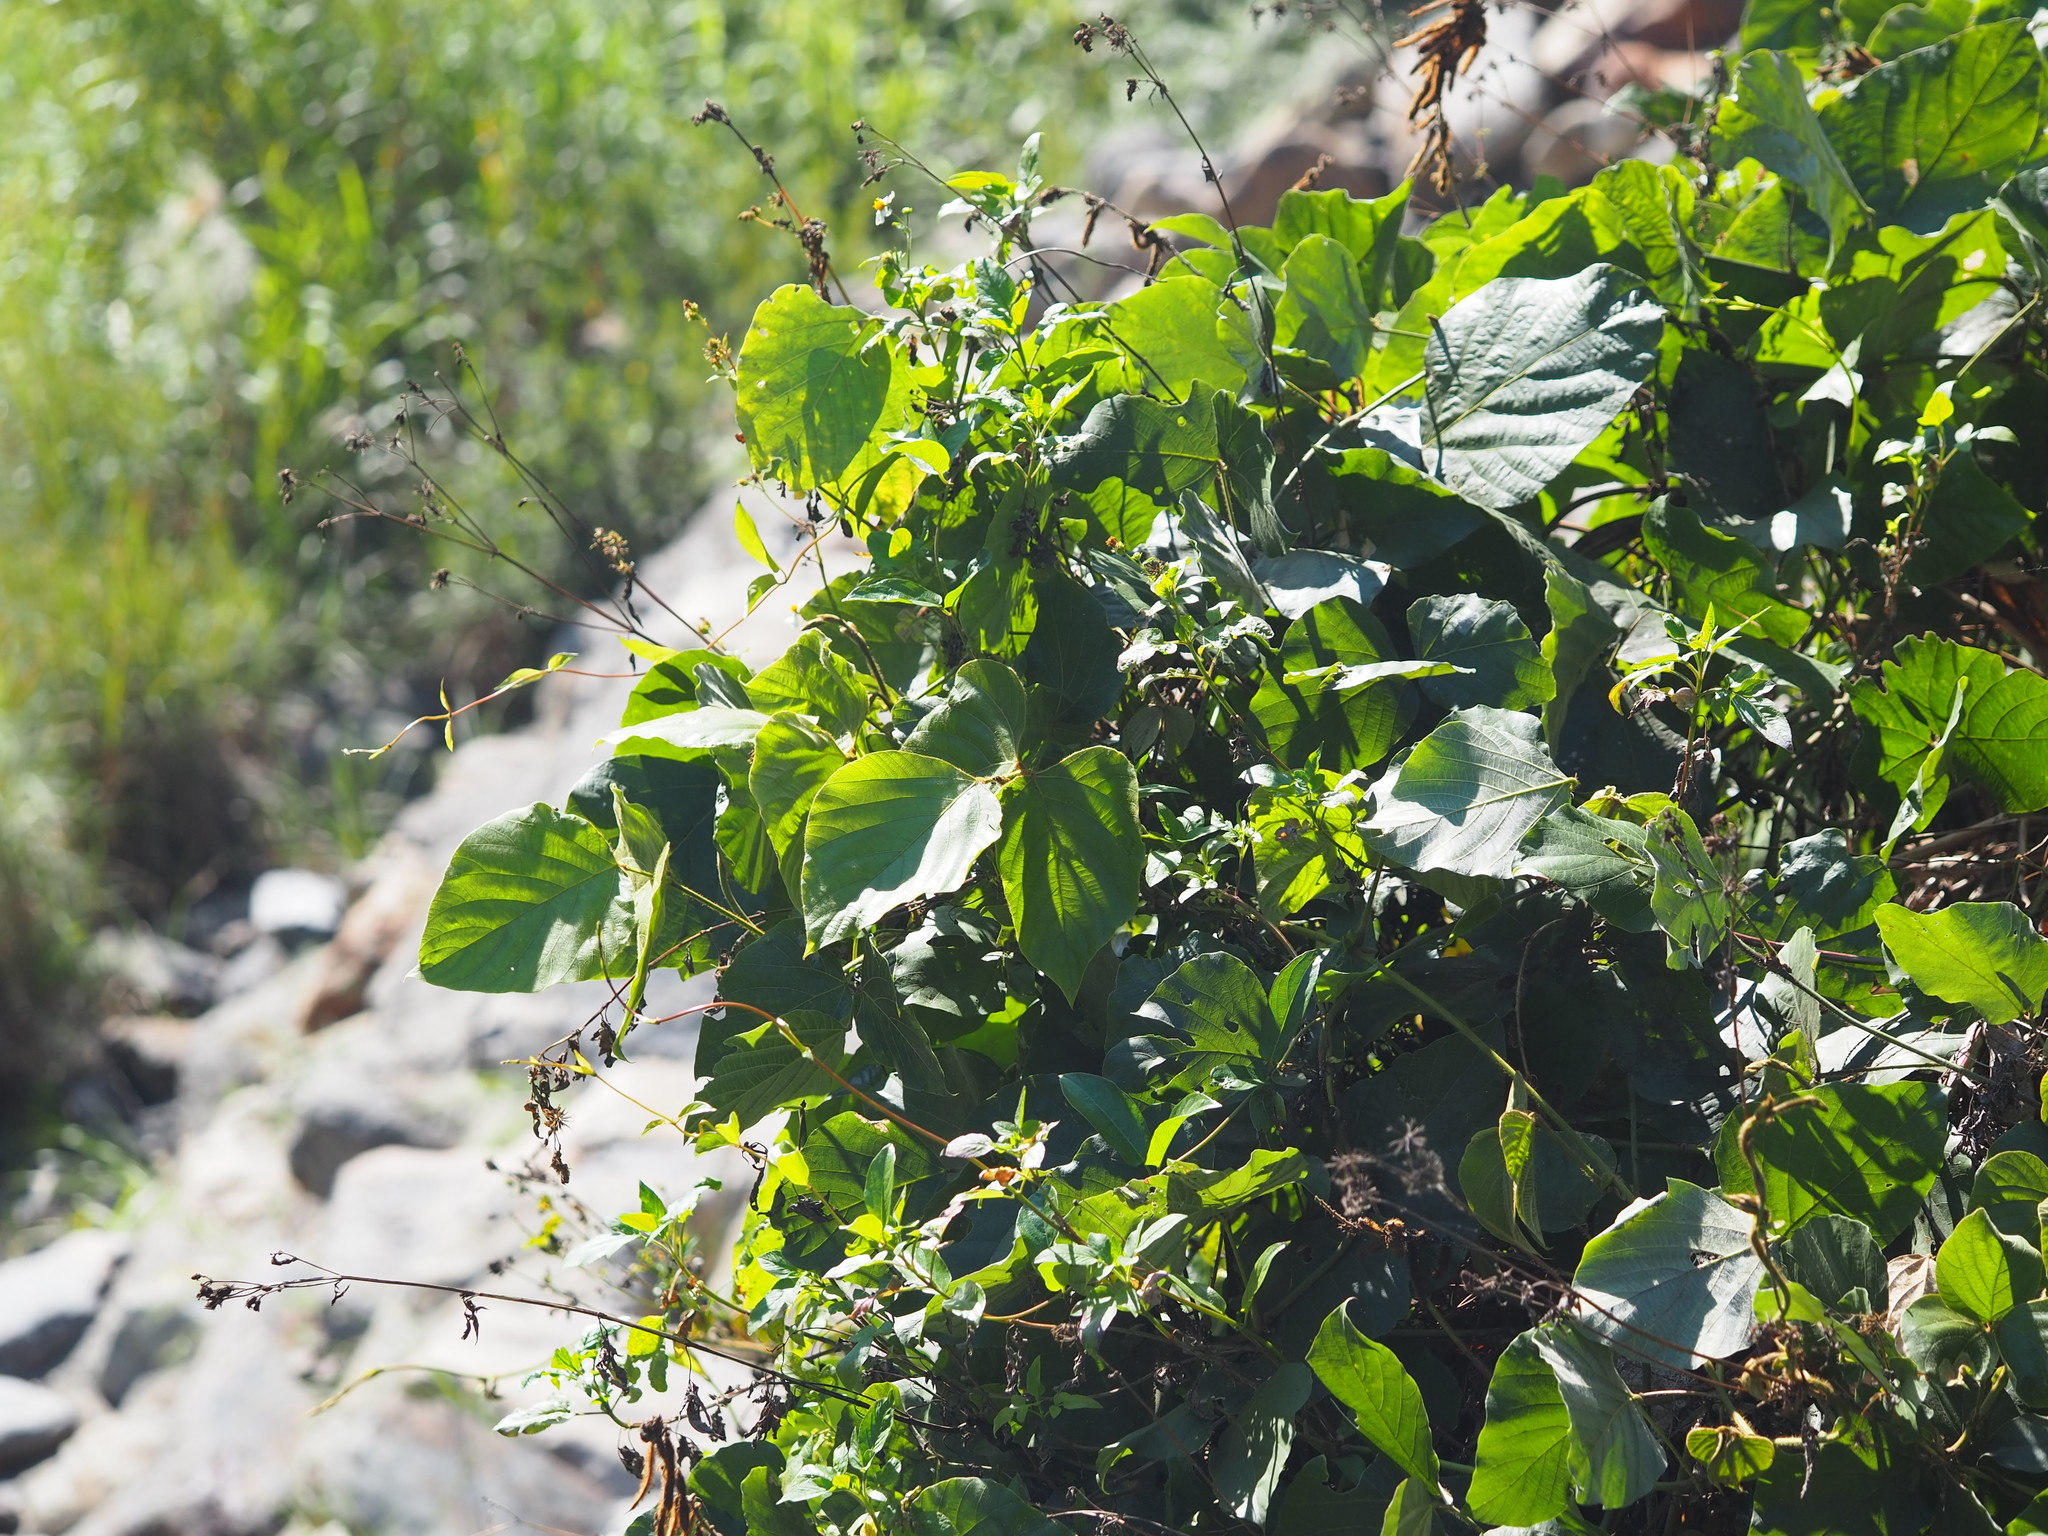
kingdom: Plantae
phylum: Tracheophyta
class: Magnoliopsida
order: Fabales
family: Fabaceae
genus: Pueraria
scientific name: Pueraria montana
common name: Kudzu
